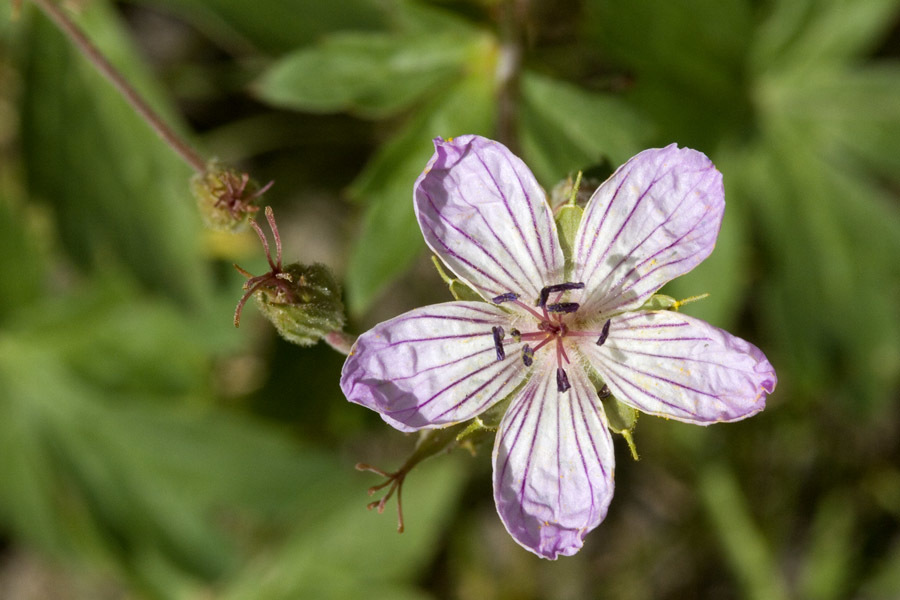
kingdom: Plantae
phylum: Tracheophyta
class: Magnoliopsida
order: Geraniales
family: Geraniaceae
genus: Geranium
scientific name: Geranium richardsonii
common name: Richardson's crane's-bill
